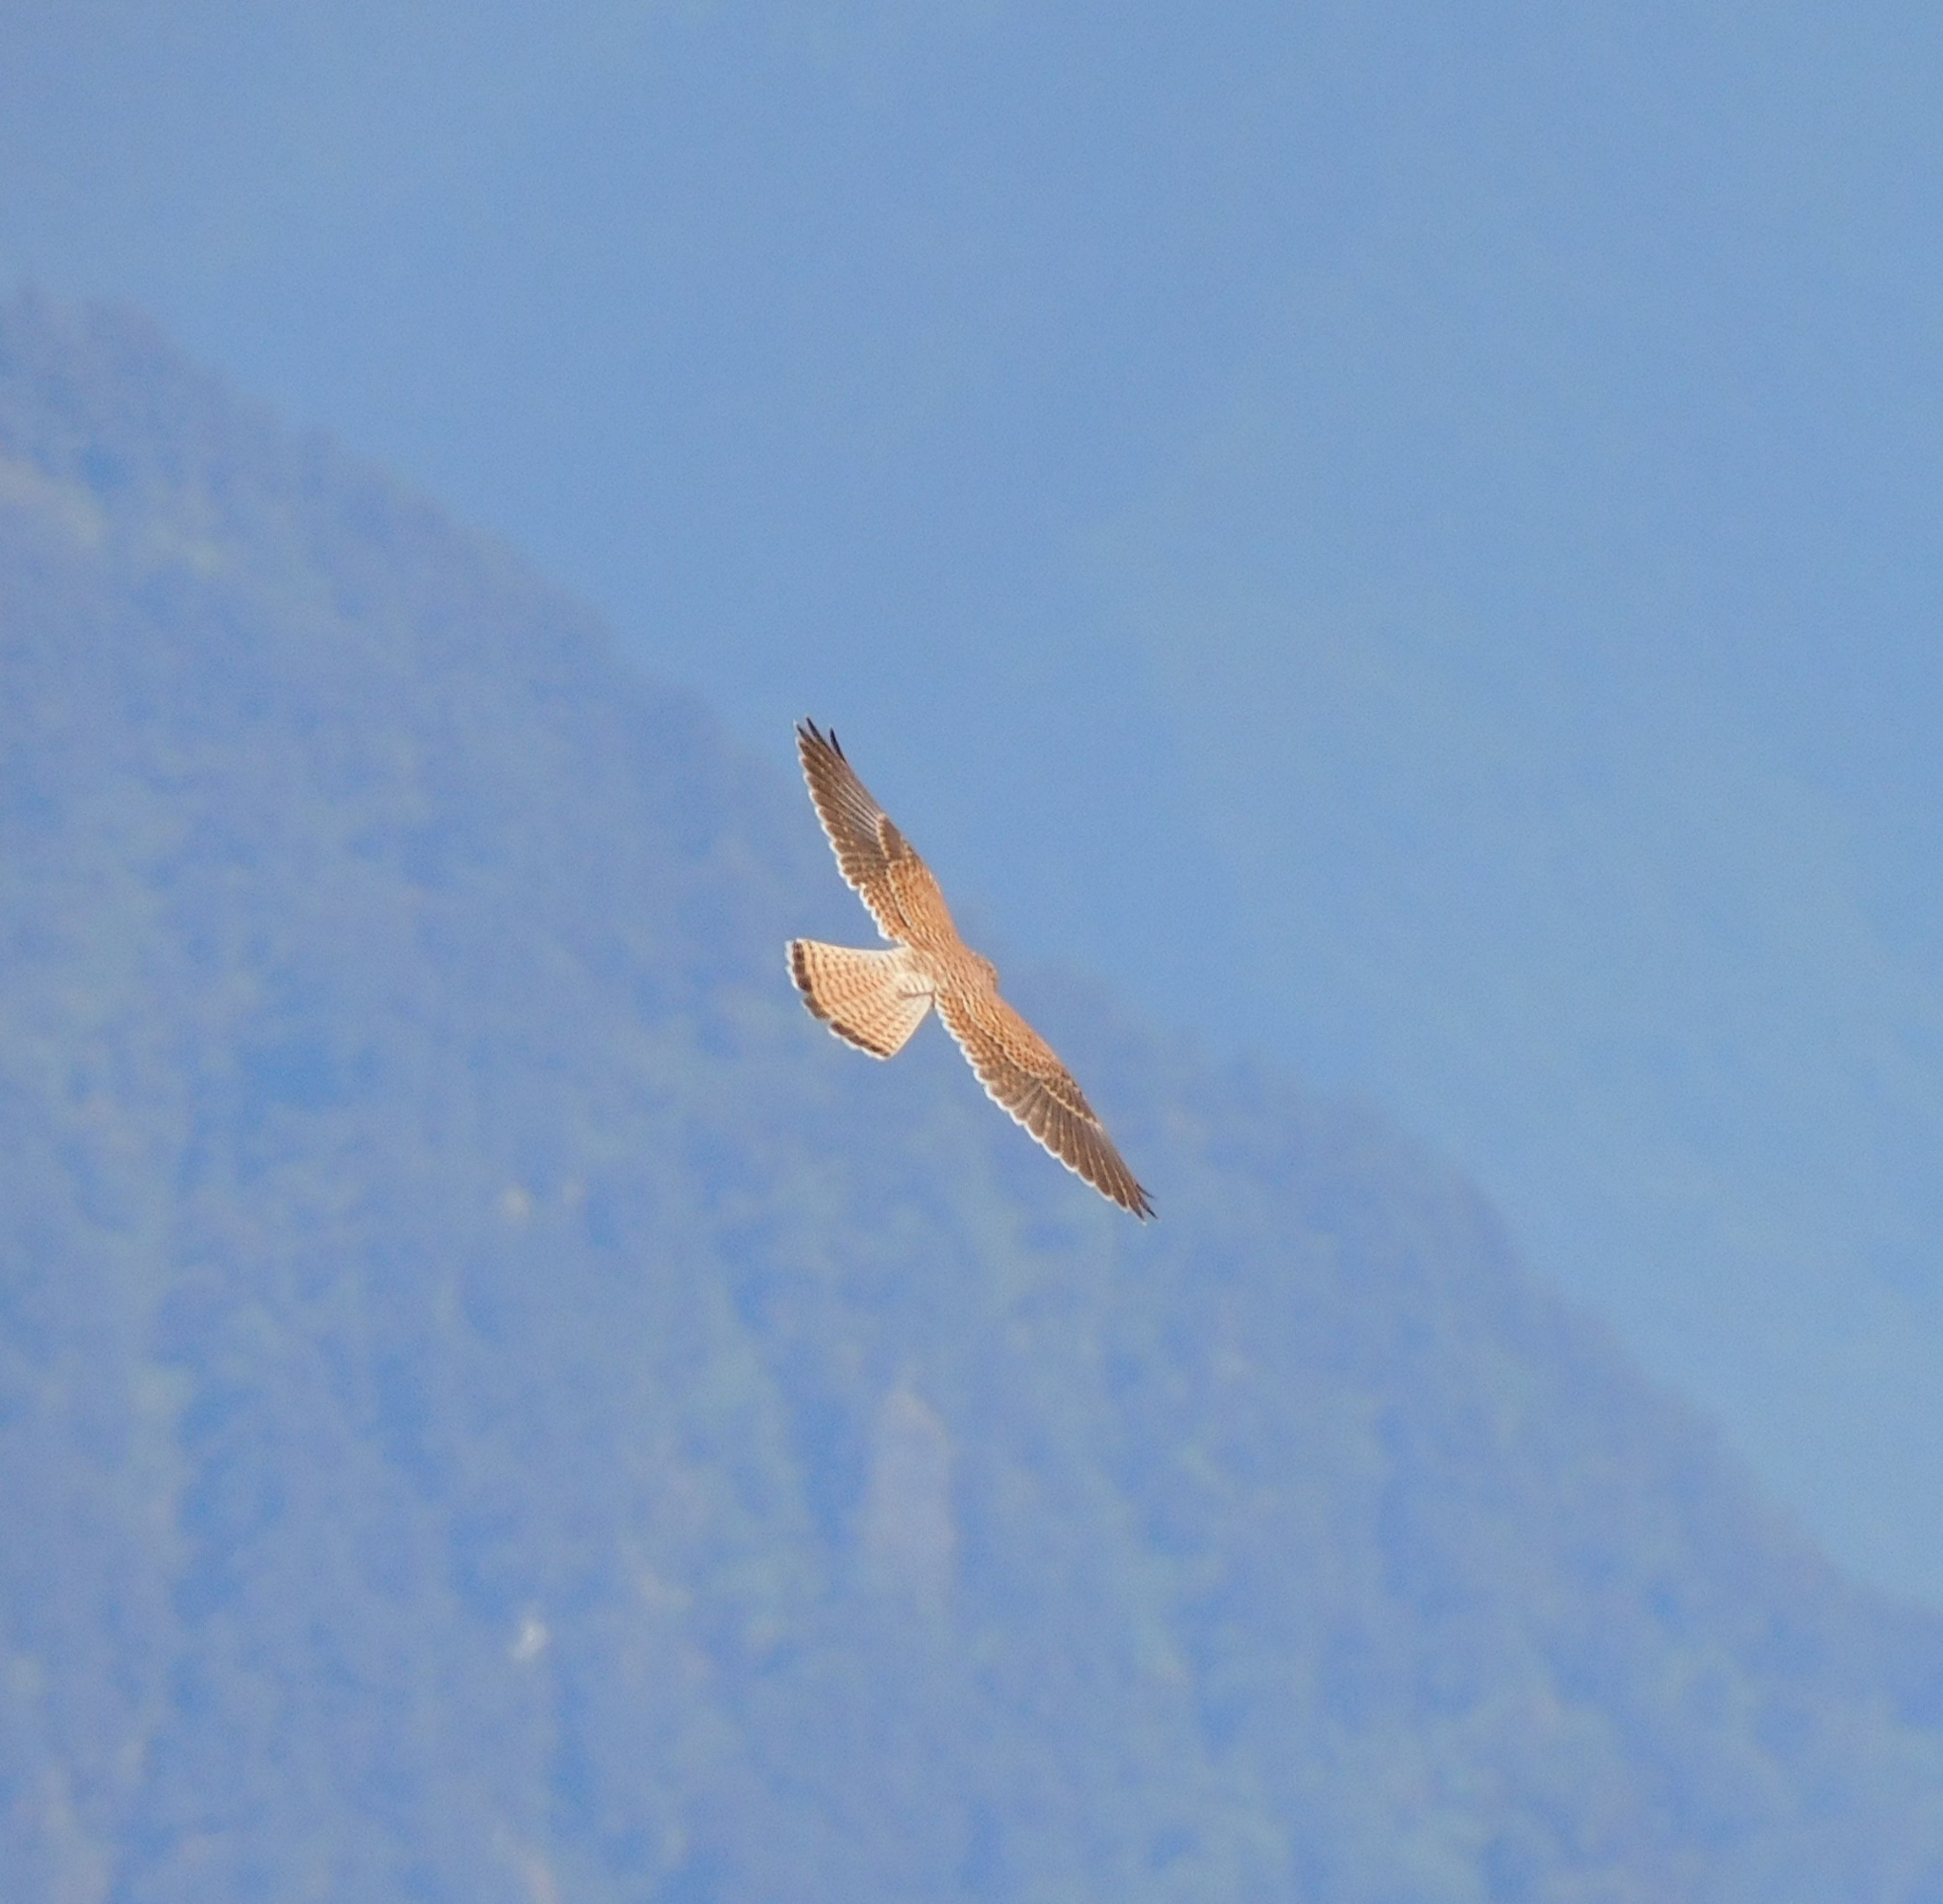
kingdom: Animalia
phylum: Chordata
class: Aves
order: Falconiformes
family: Falconidae
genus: Falco
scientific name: Falco tinnunculus
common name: Common kestrel
